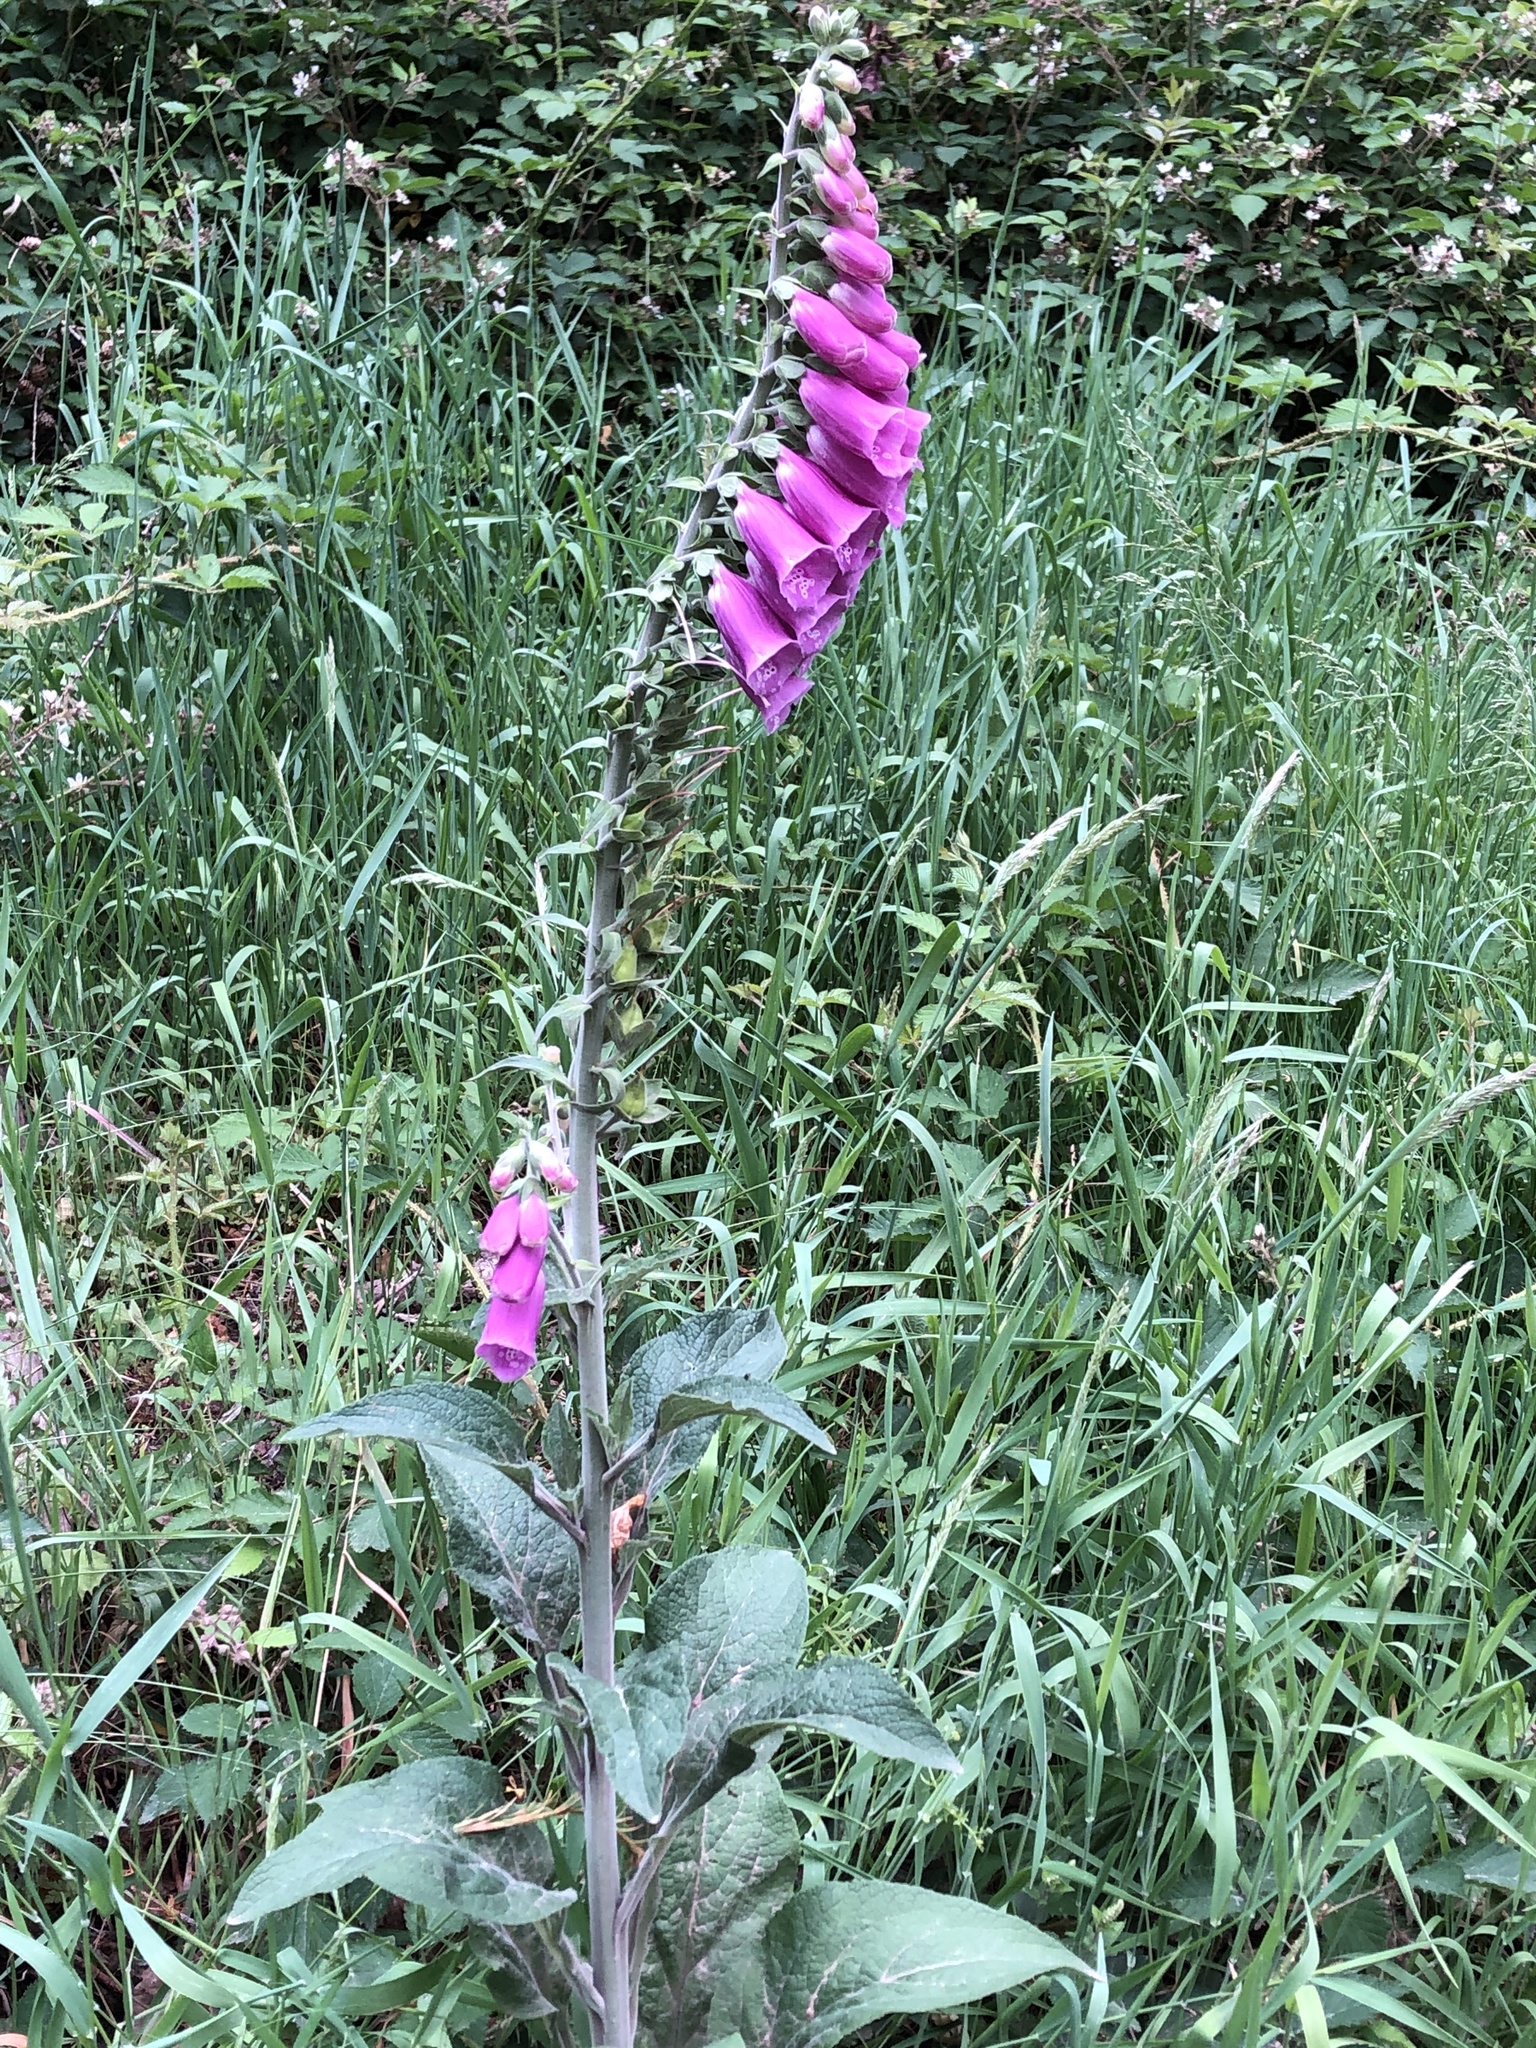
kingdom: Plantae
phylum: Tracheophyta
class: Magnoliopsida
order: Lamiales
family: Plantaginaceae
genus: Digitalis
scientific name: Digitalis purpurea
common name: Foxglove
